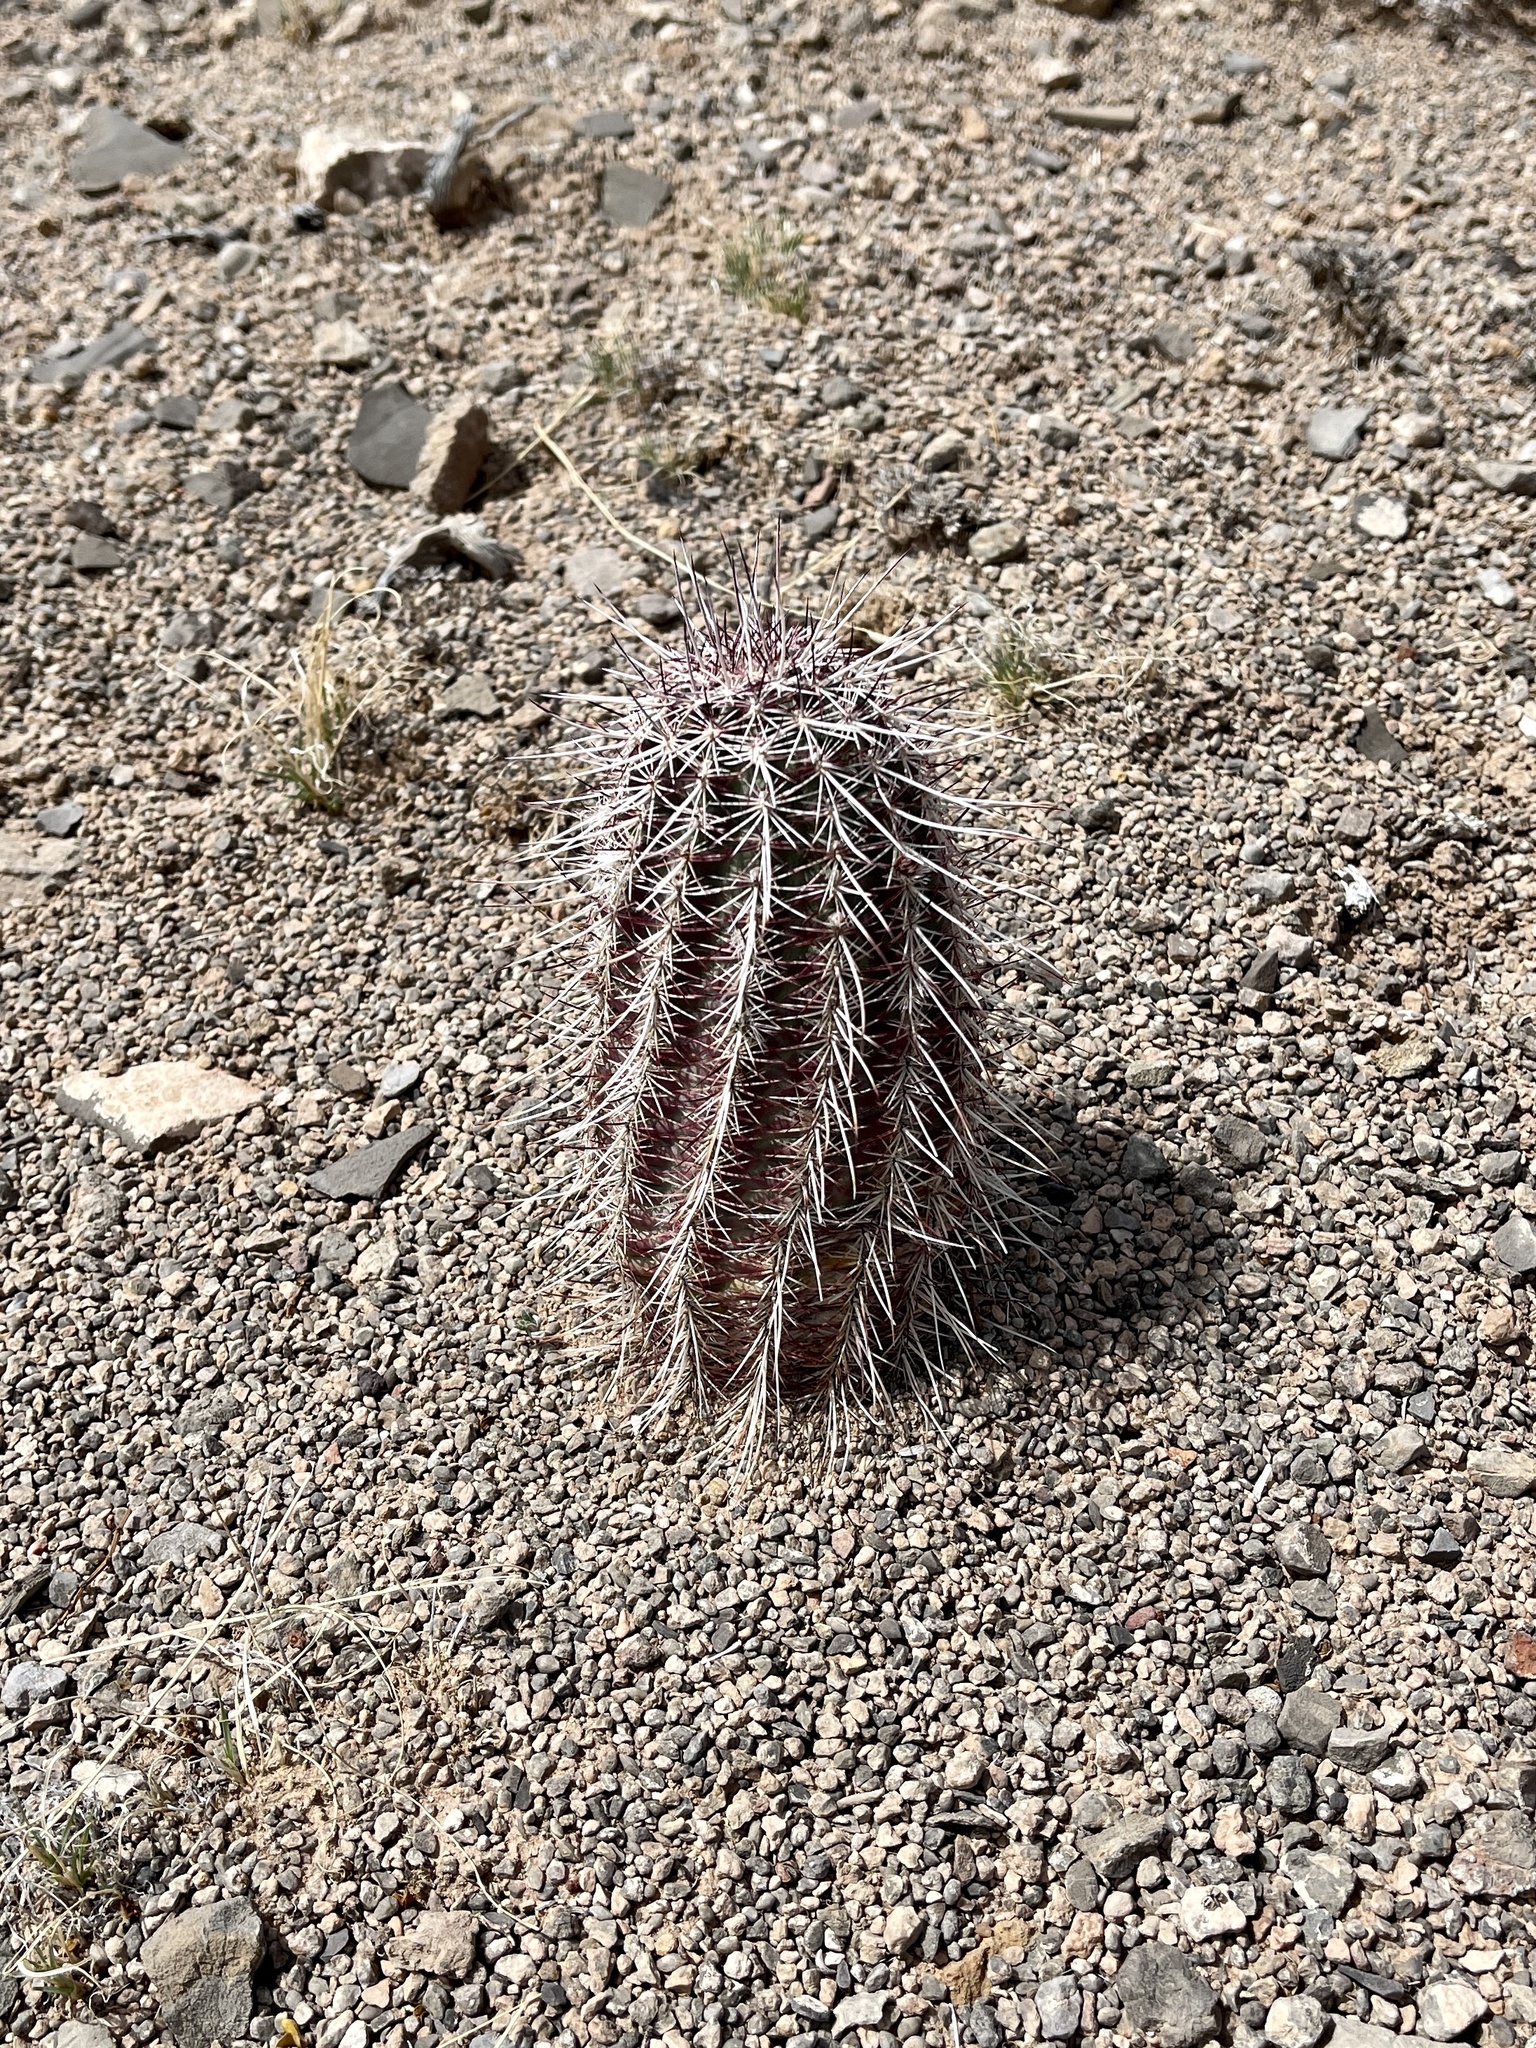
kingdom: Plantae
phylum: Tracheophyta
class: Magnoliopsida
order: Caryophyllales
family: Cactaceae
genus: Echinocereus
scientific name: Echinocereus viridiflorus
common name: Nylon hedgehog cactus
